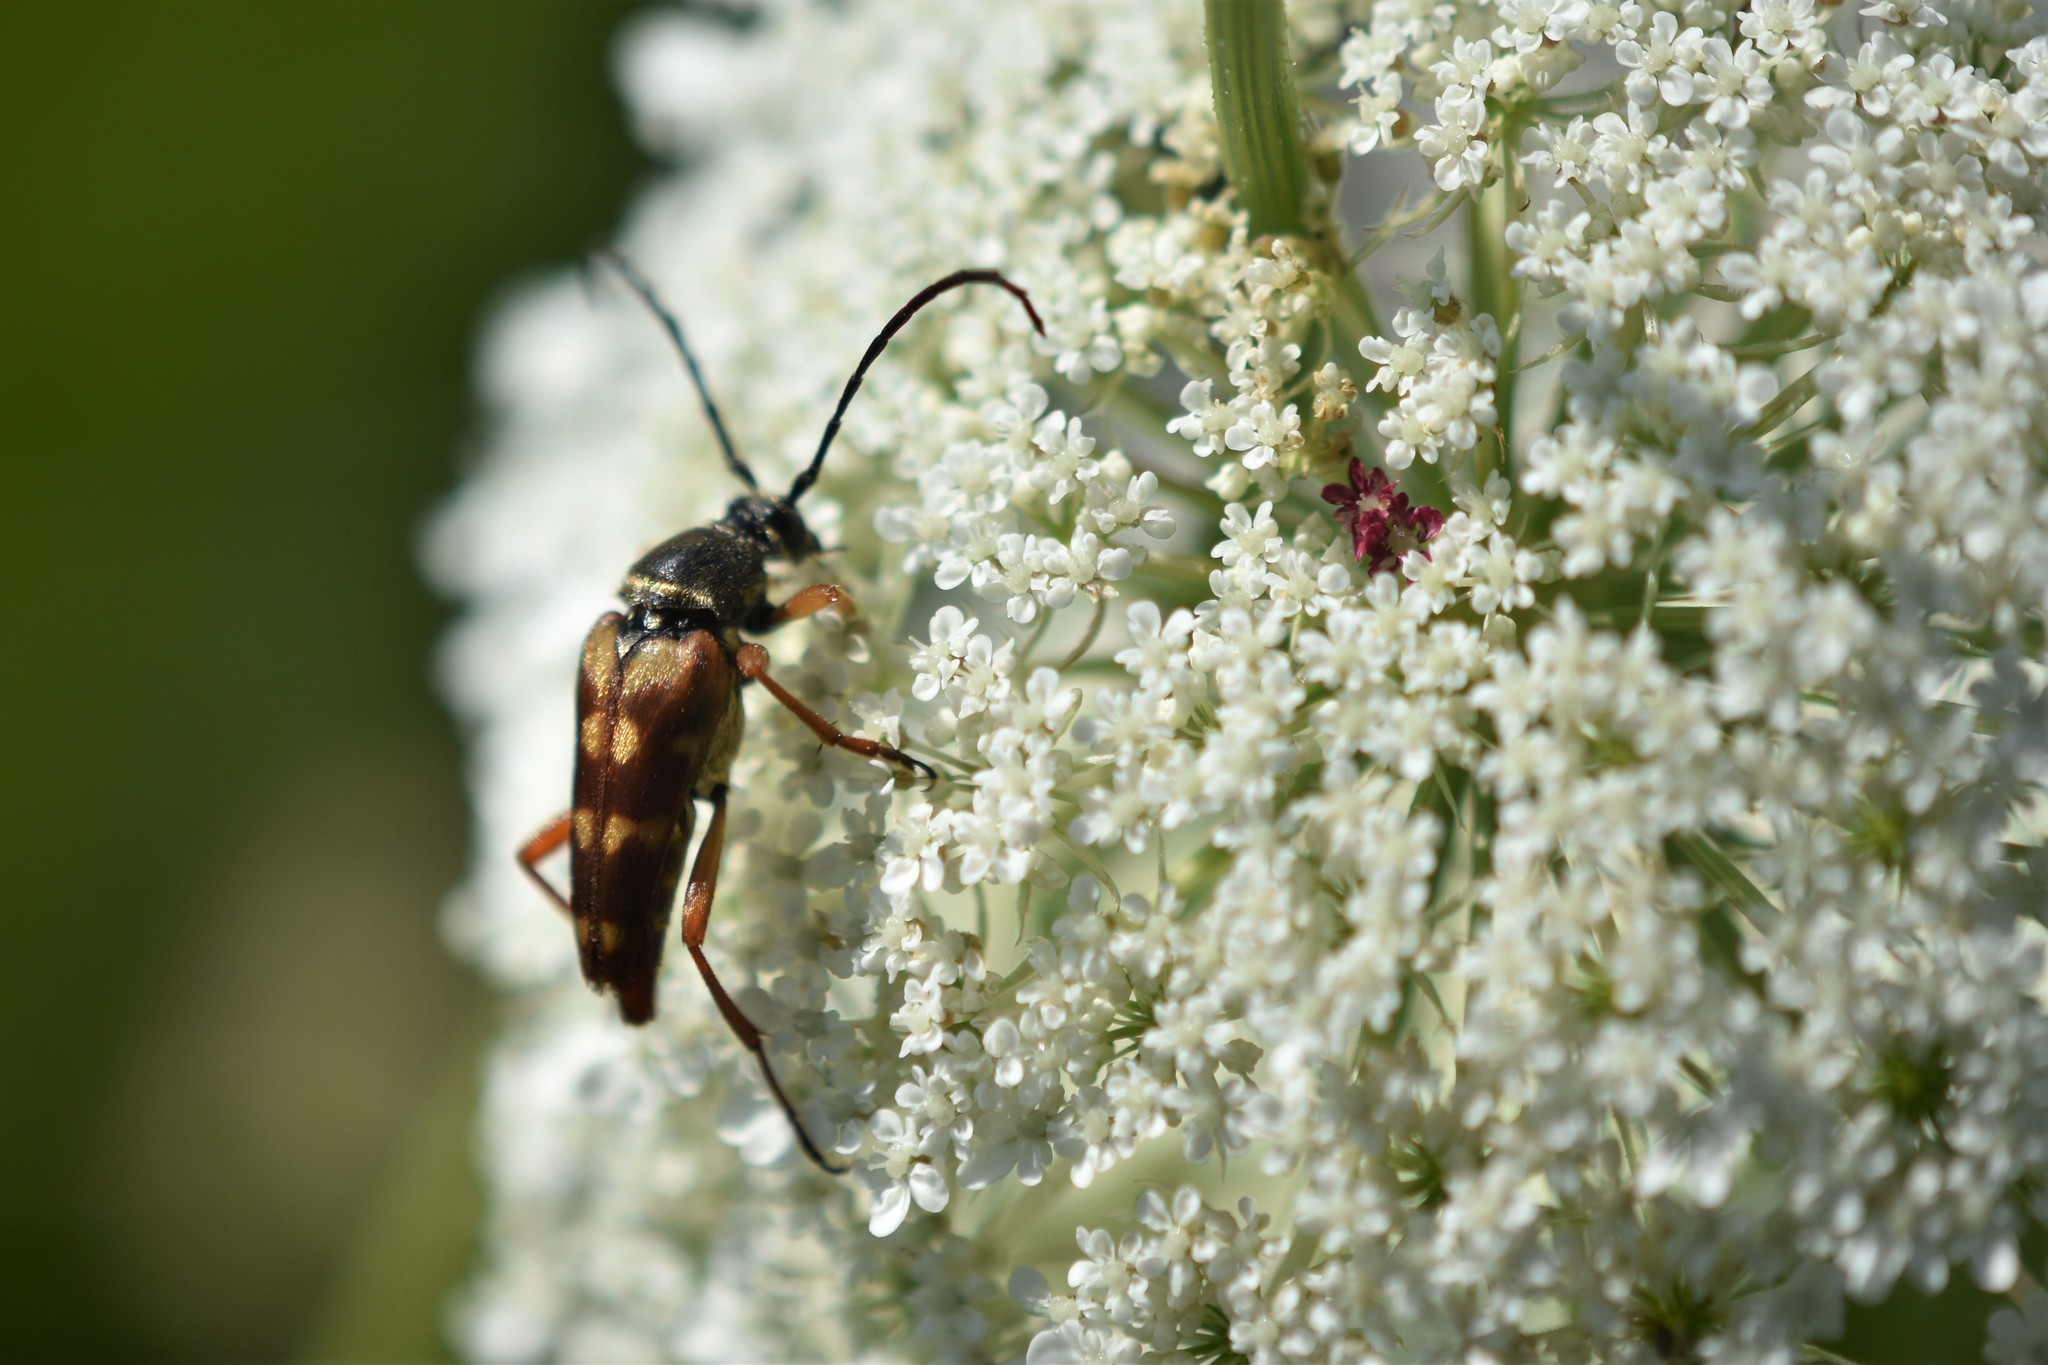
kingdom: Animalia
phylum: Arthropoda
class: Insecta
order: Coleoptera
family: Cerambycidae
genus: Typocerus
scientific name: Typocerus velutinus
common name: Banded longhorn beetle
